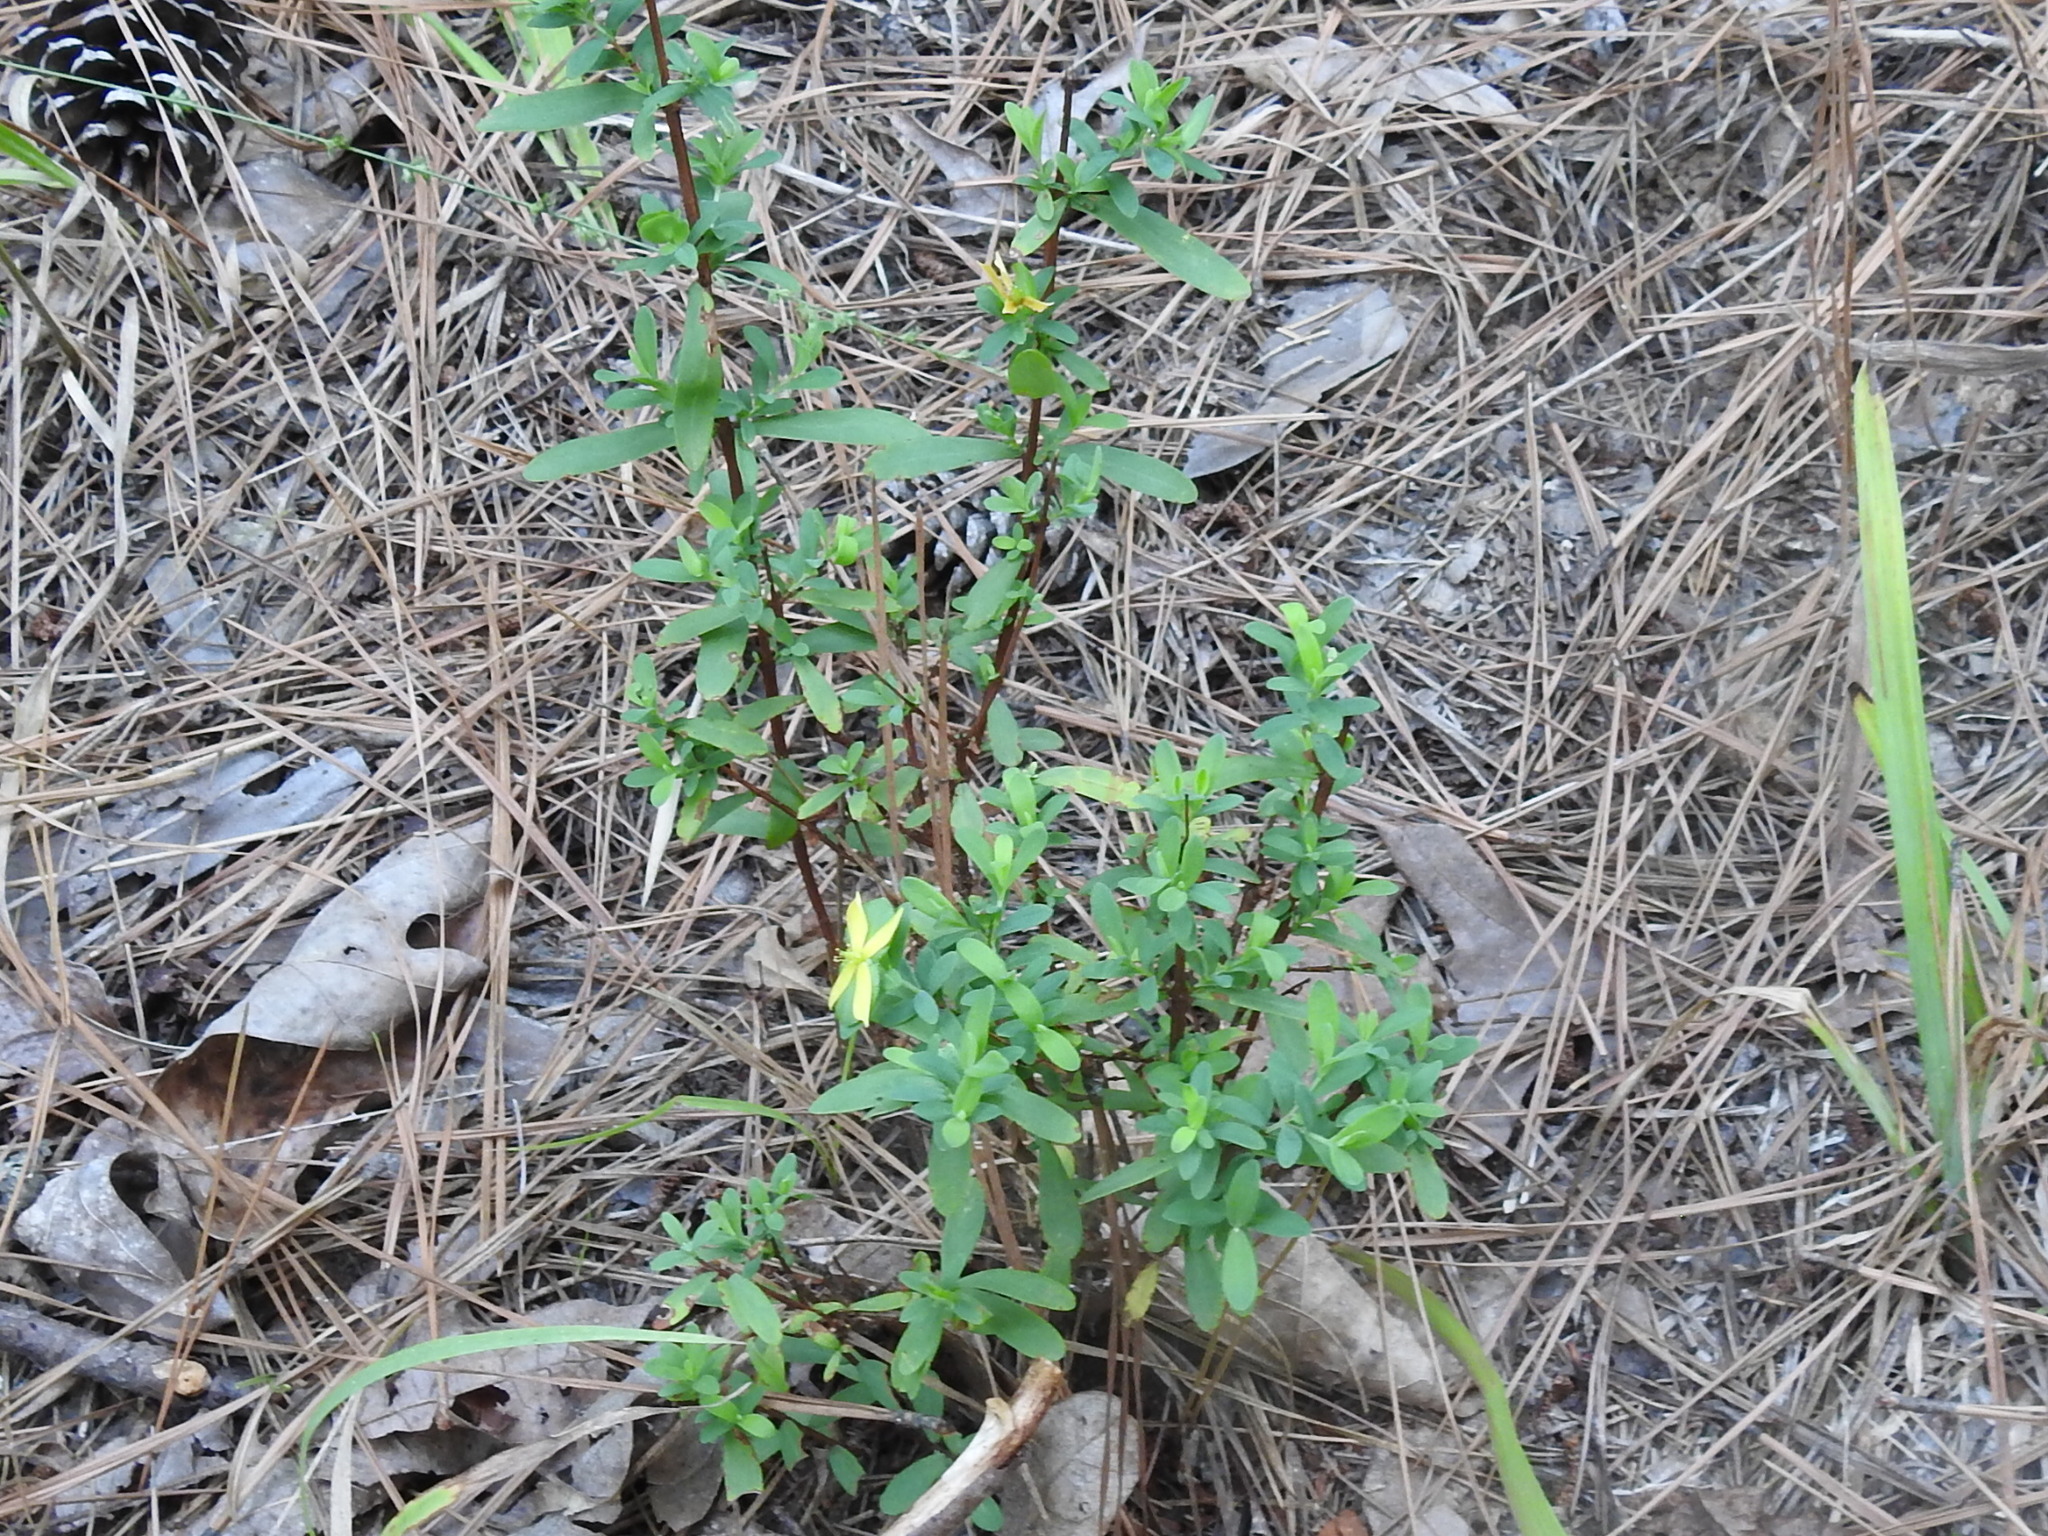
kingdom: Plantae
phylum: Tracheophyta
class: Magnoliopsida
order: Malpighiales
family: Hypericaceae
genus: Hypericum
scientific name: Hypericum hypericoides
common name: St. andrew's cross
